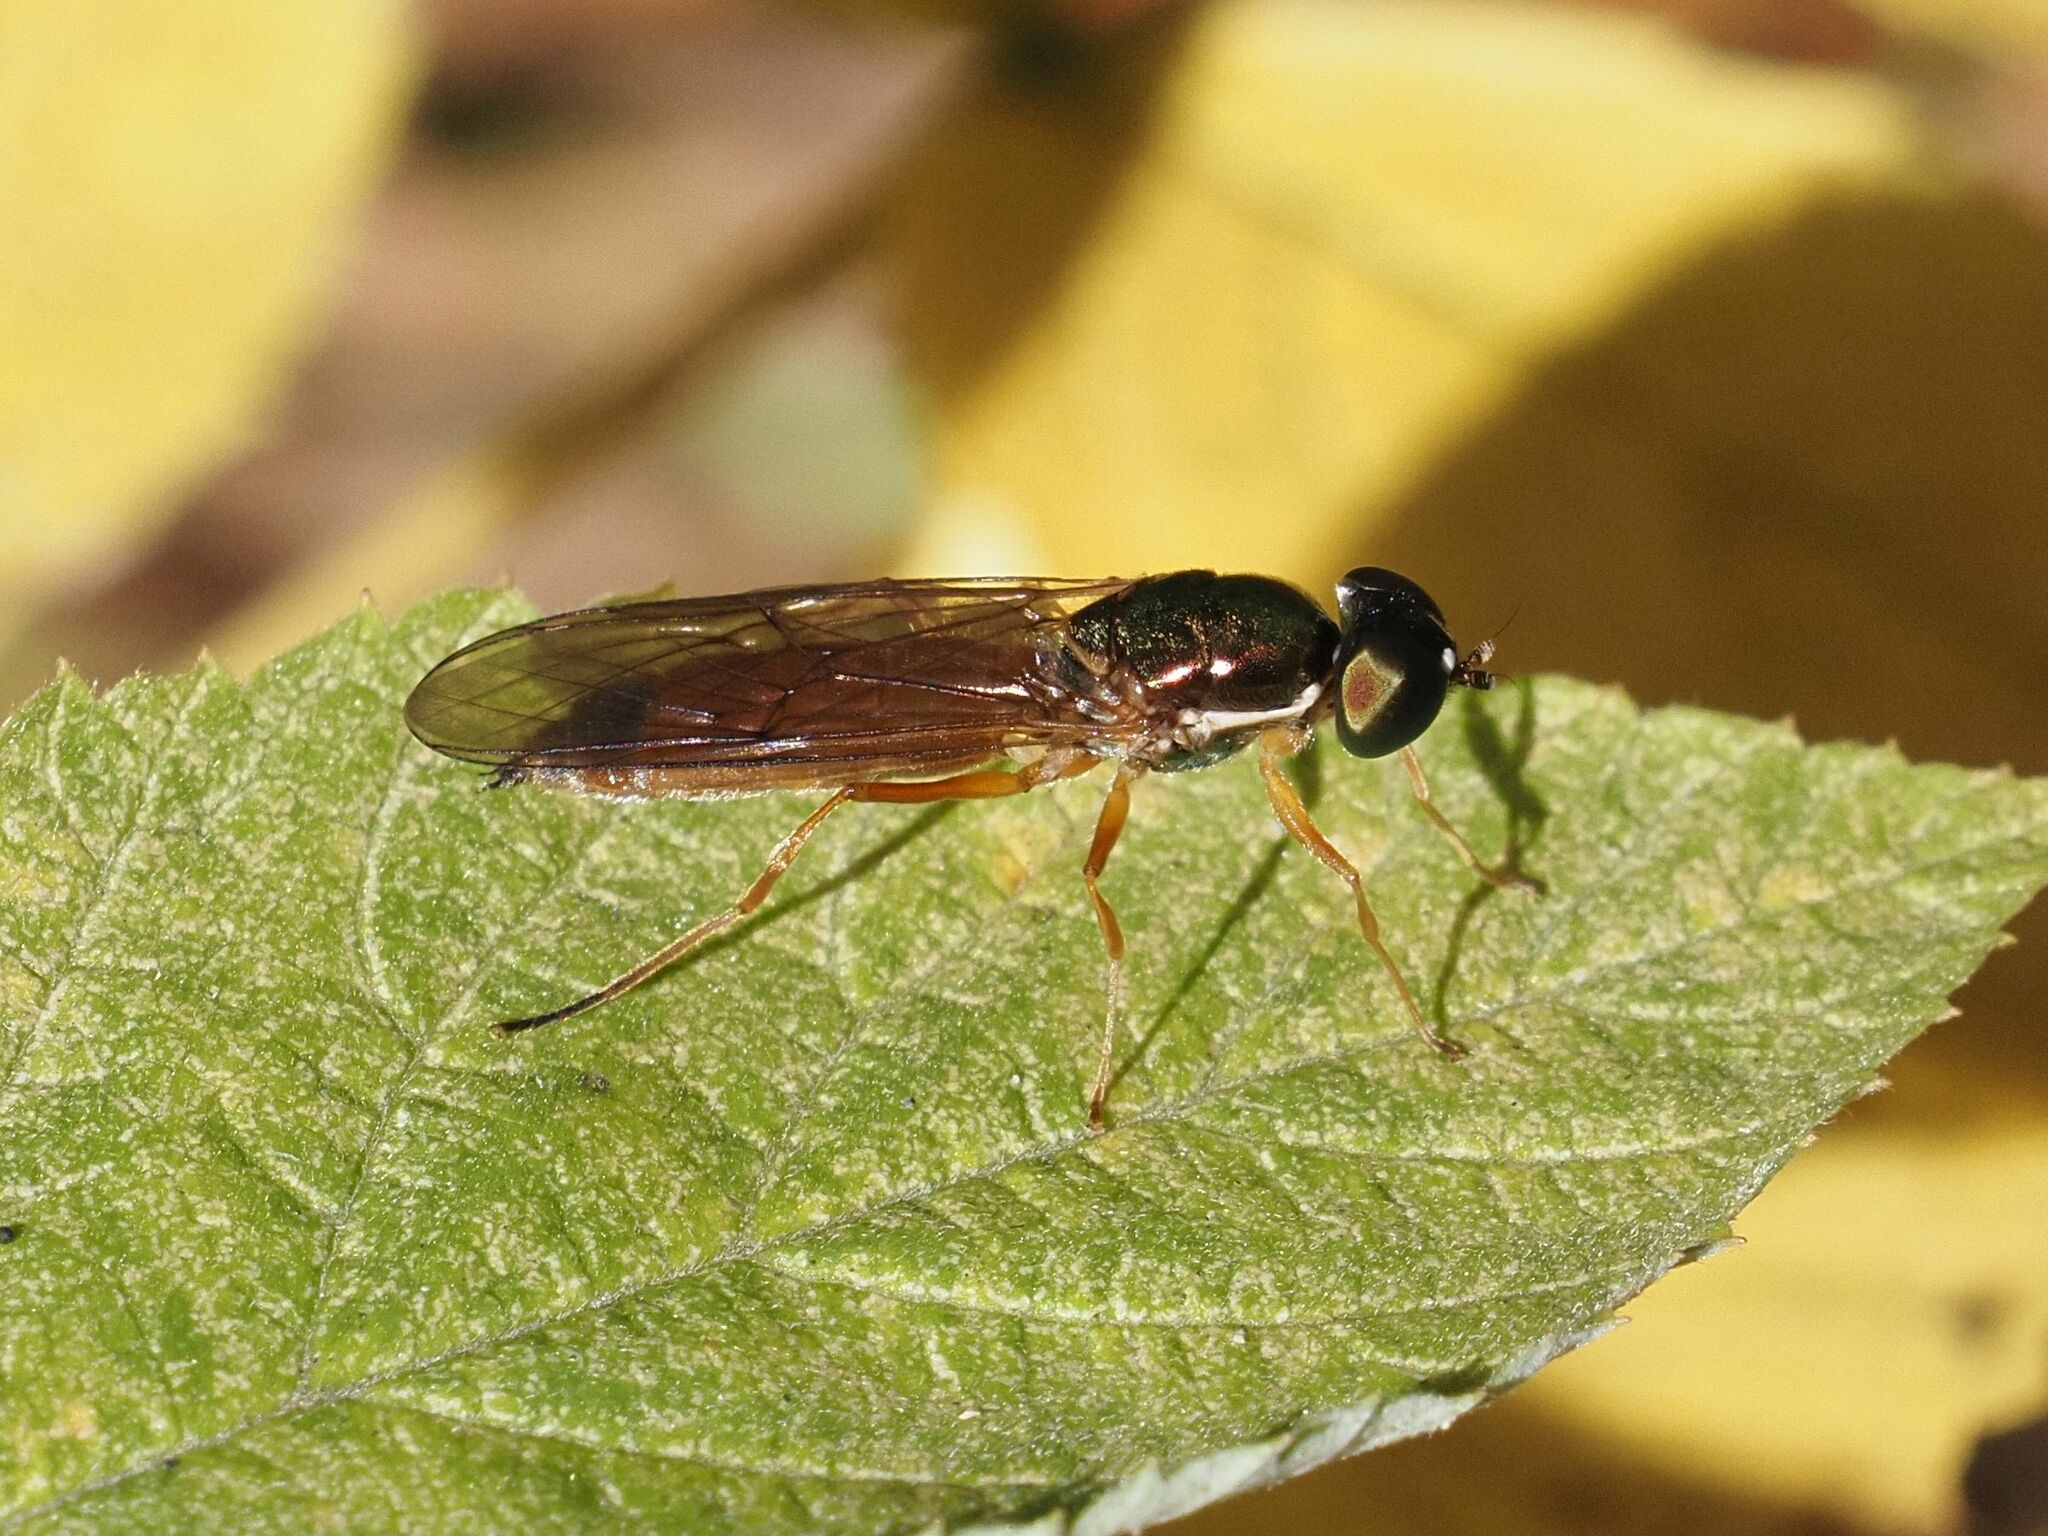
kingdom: Animalia
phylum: Arthropoda
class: Insecta
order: Diptera
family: Stratiomyidae
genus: Sargus
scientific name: Sargus bipunctatus
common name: Twin-spot centurion
